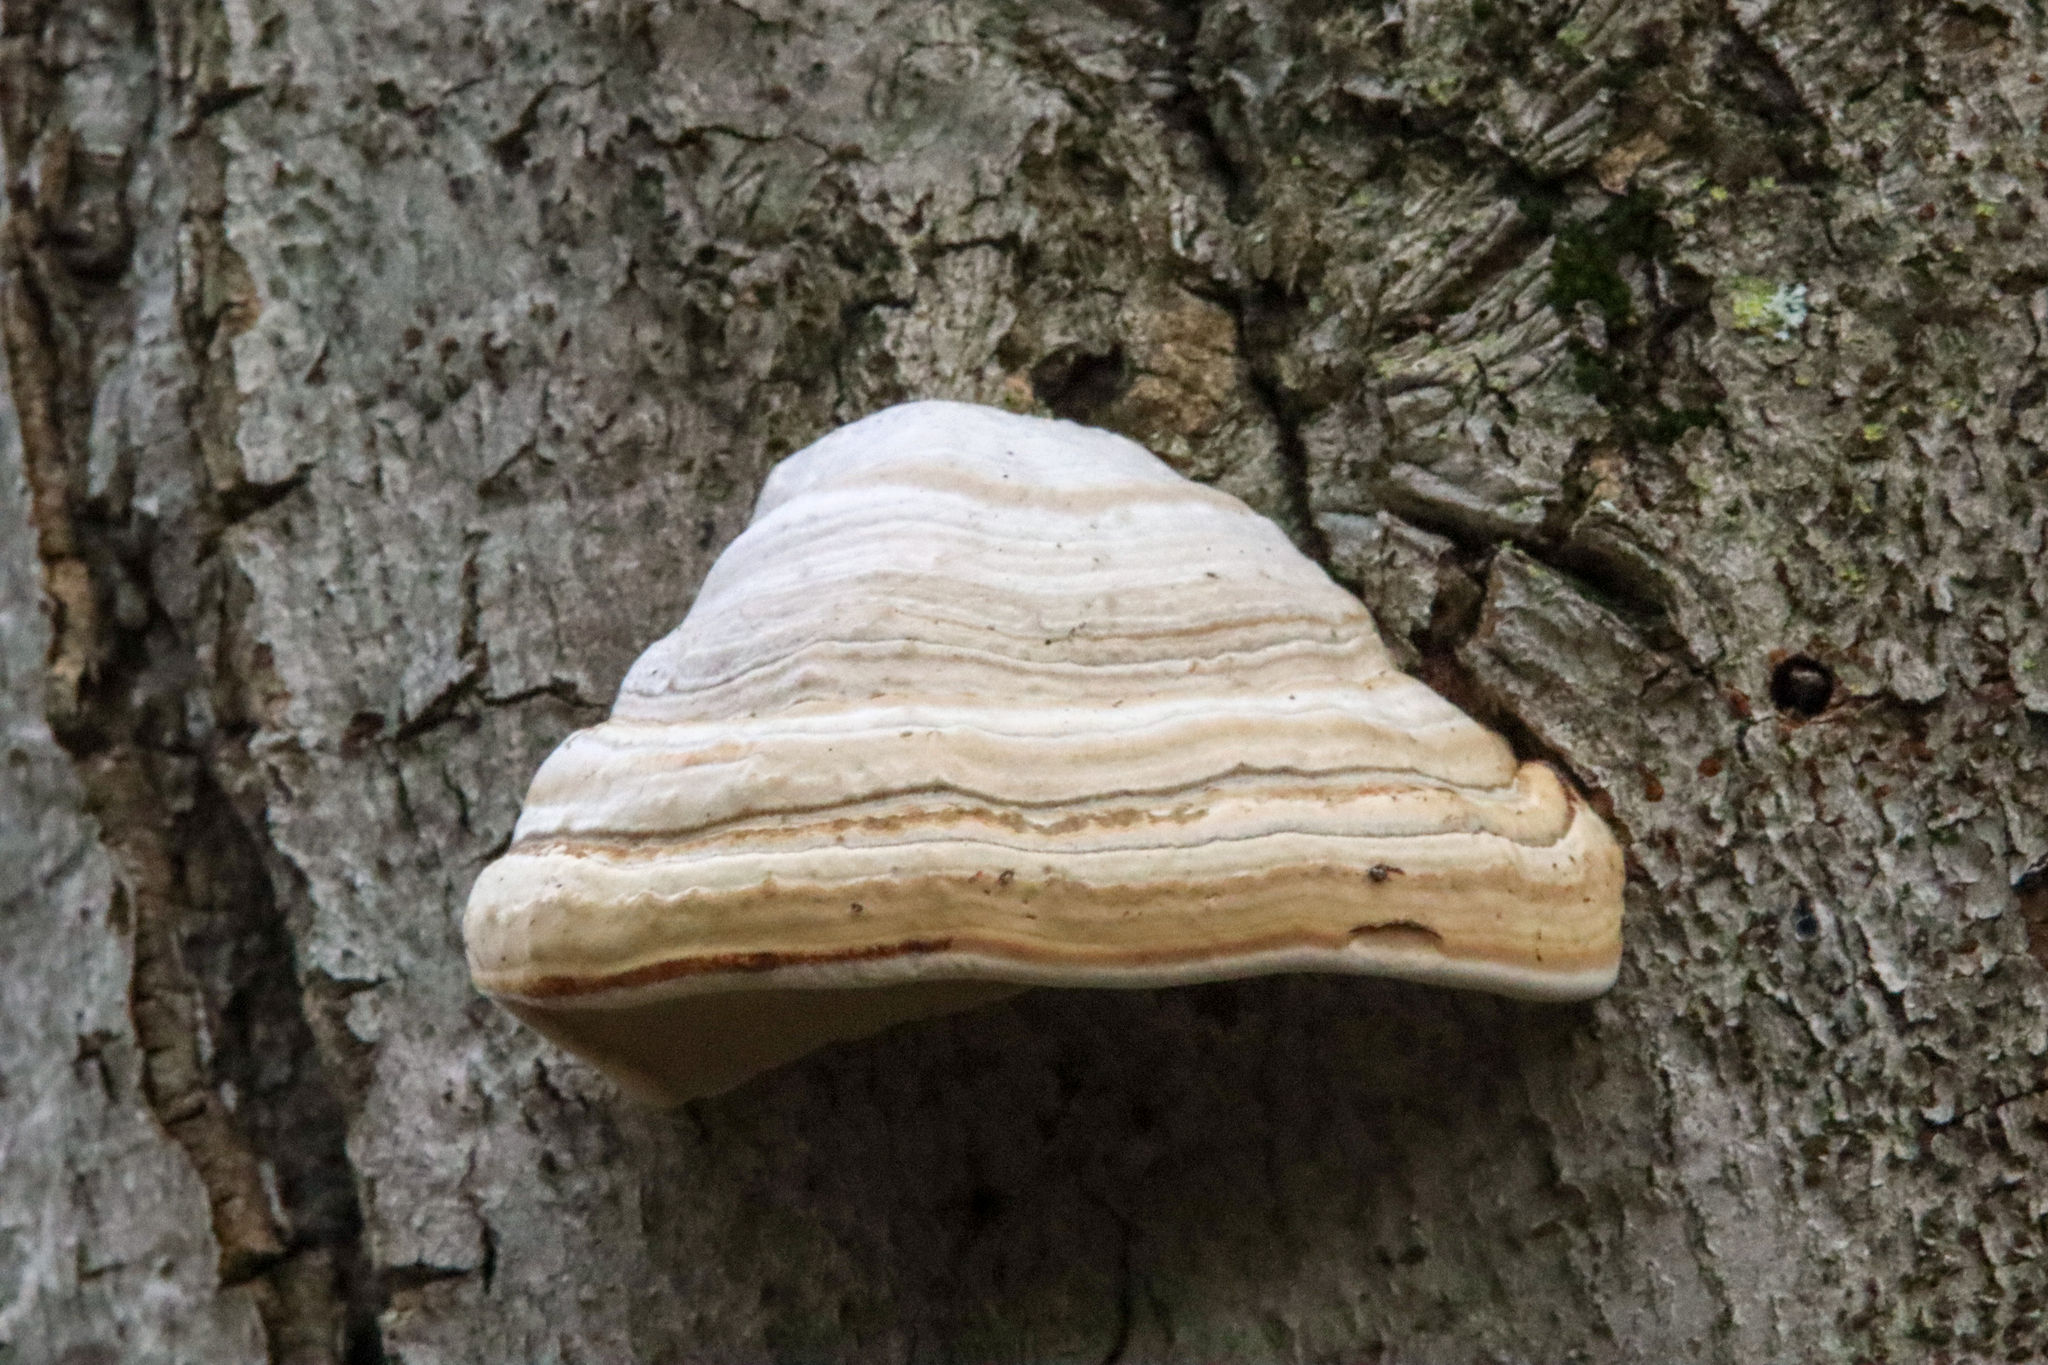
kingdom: Fungi
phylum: Basidiomycota
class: Agaricomycetes
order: Polyporales
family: Polyporaceae
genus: Fomes
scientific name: Fomes fomentarius
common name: Hoof fungus
